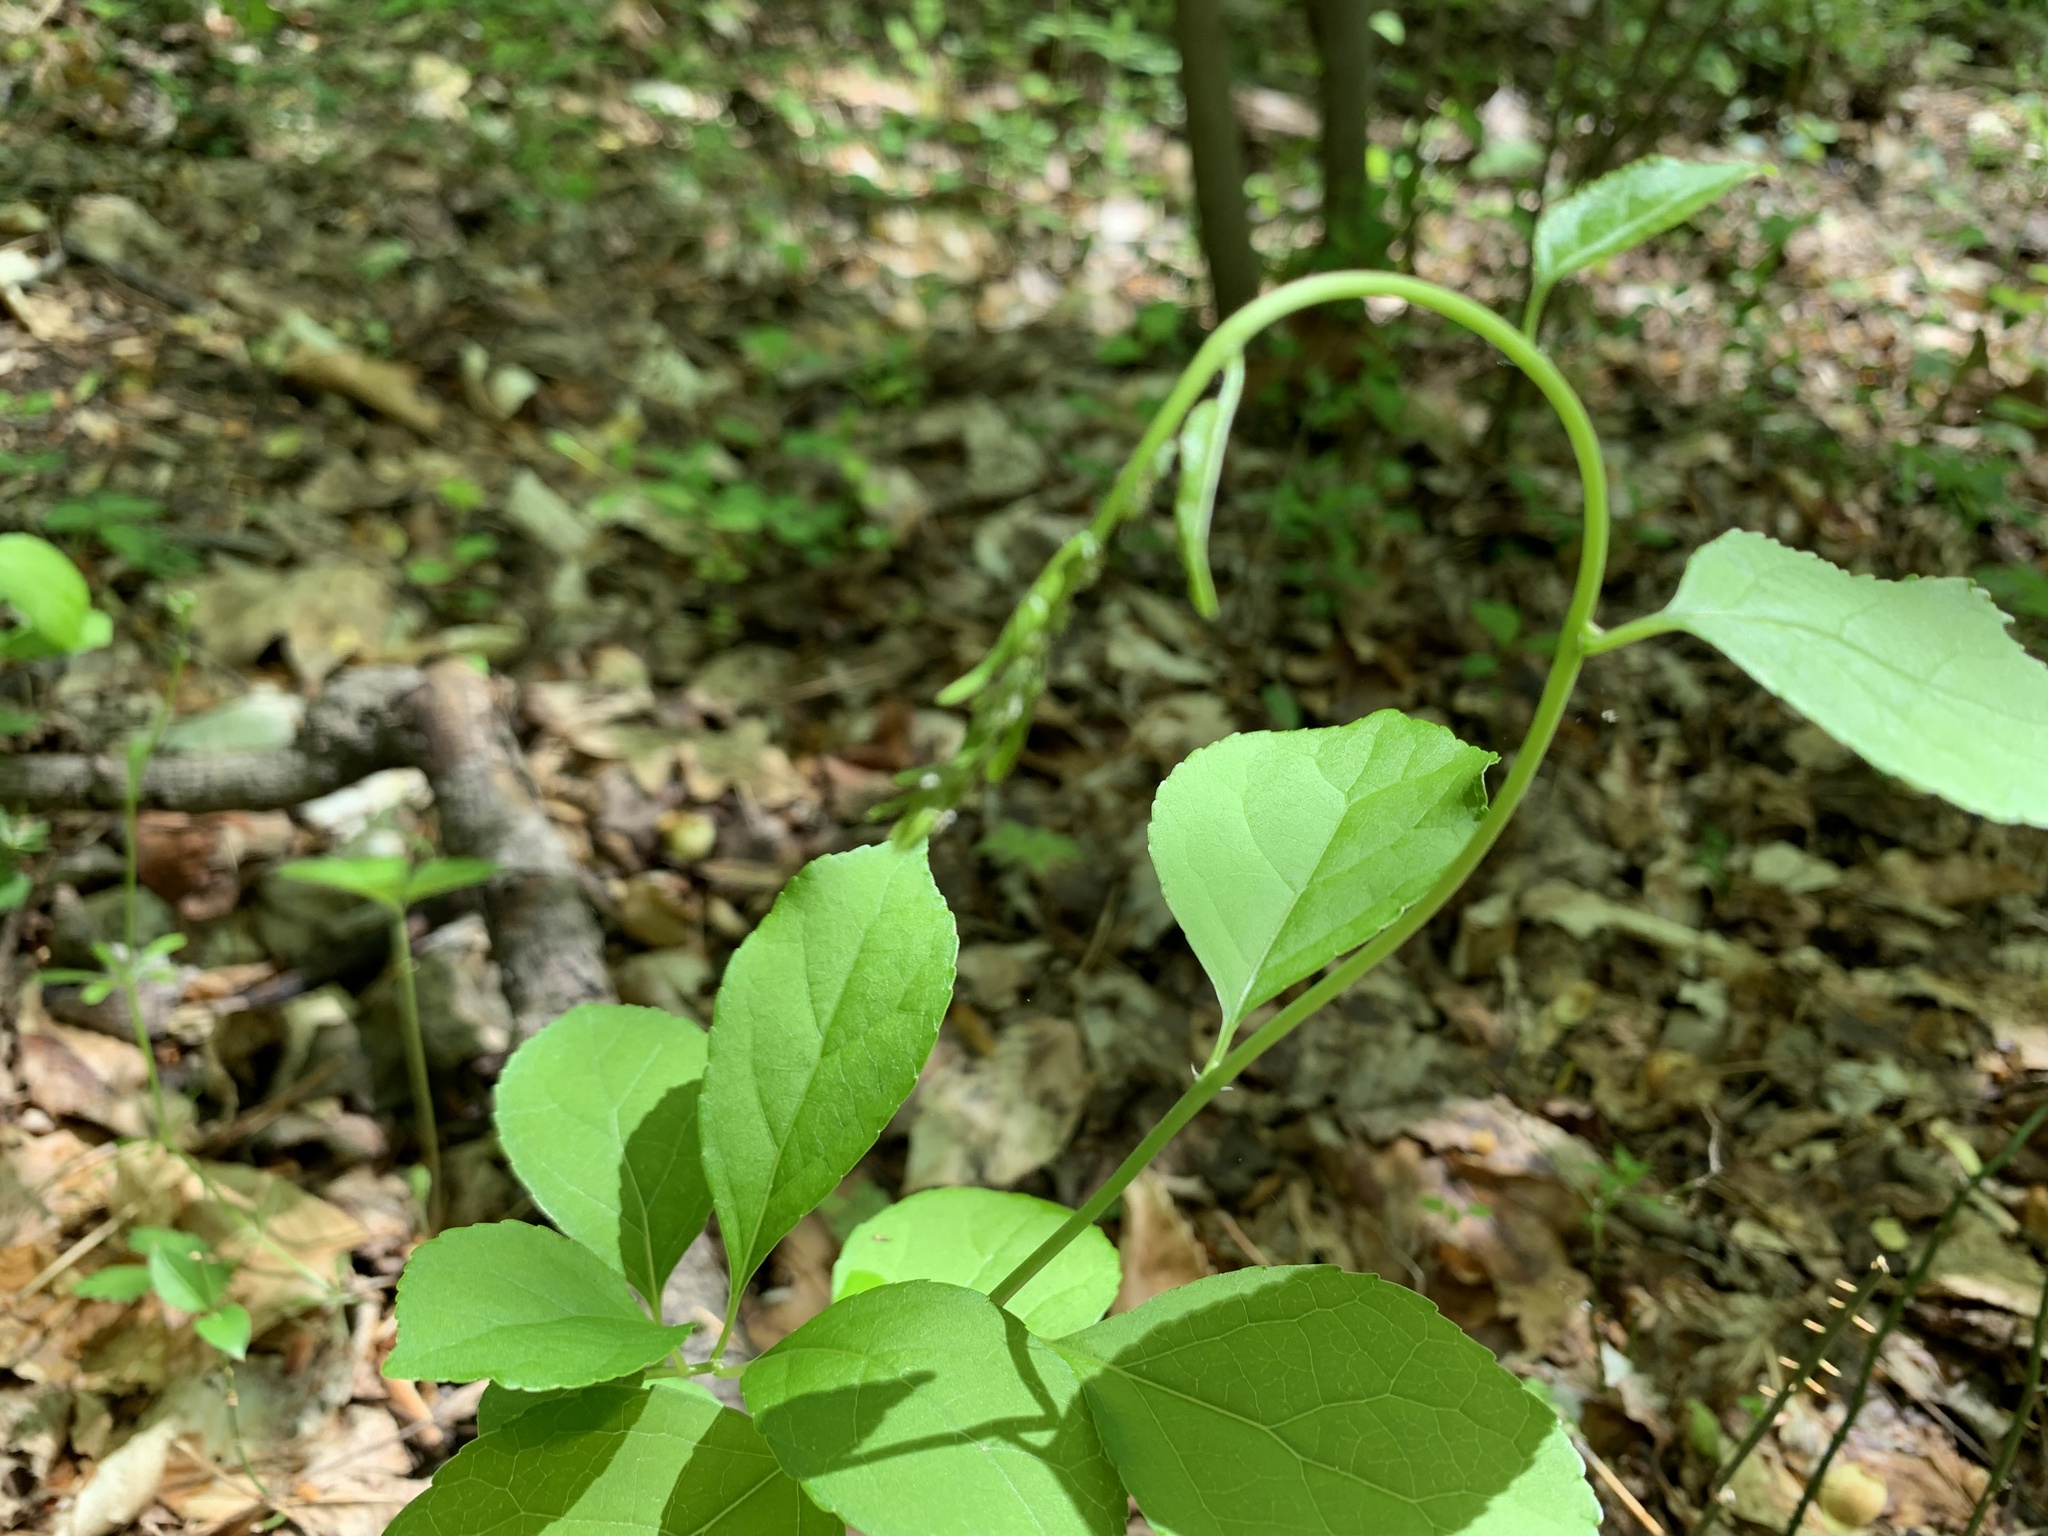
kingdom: Plantae
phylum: Tracheophyta
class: Magnoliopsida
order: Celastrales
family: Celastraceae
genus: Celastrus
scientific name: Celastrus orbiculatus
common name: Oriental bittersweet
